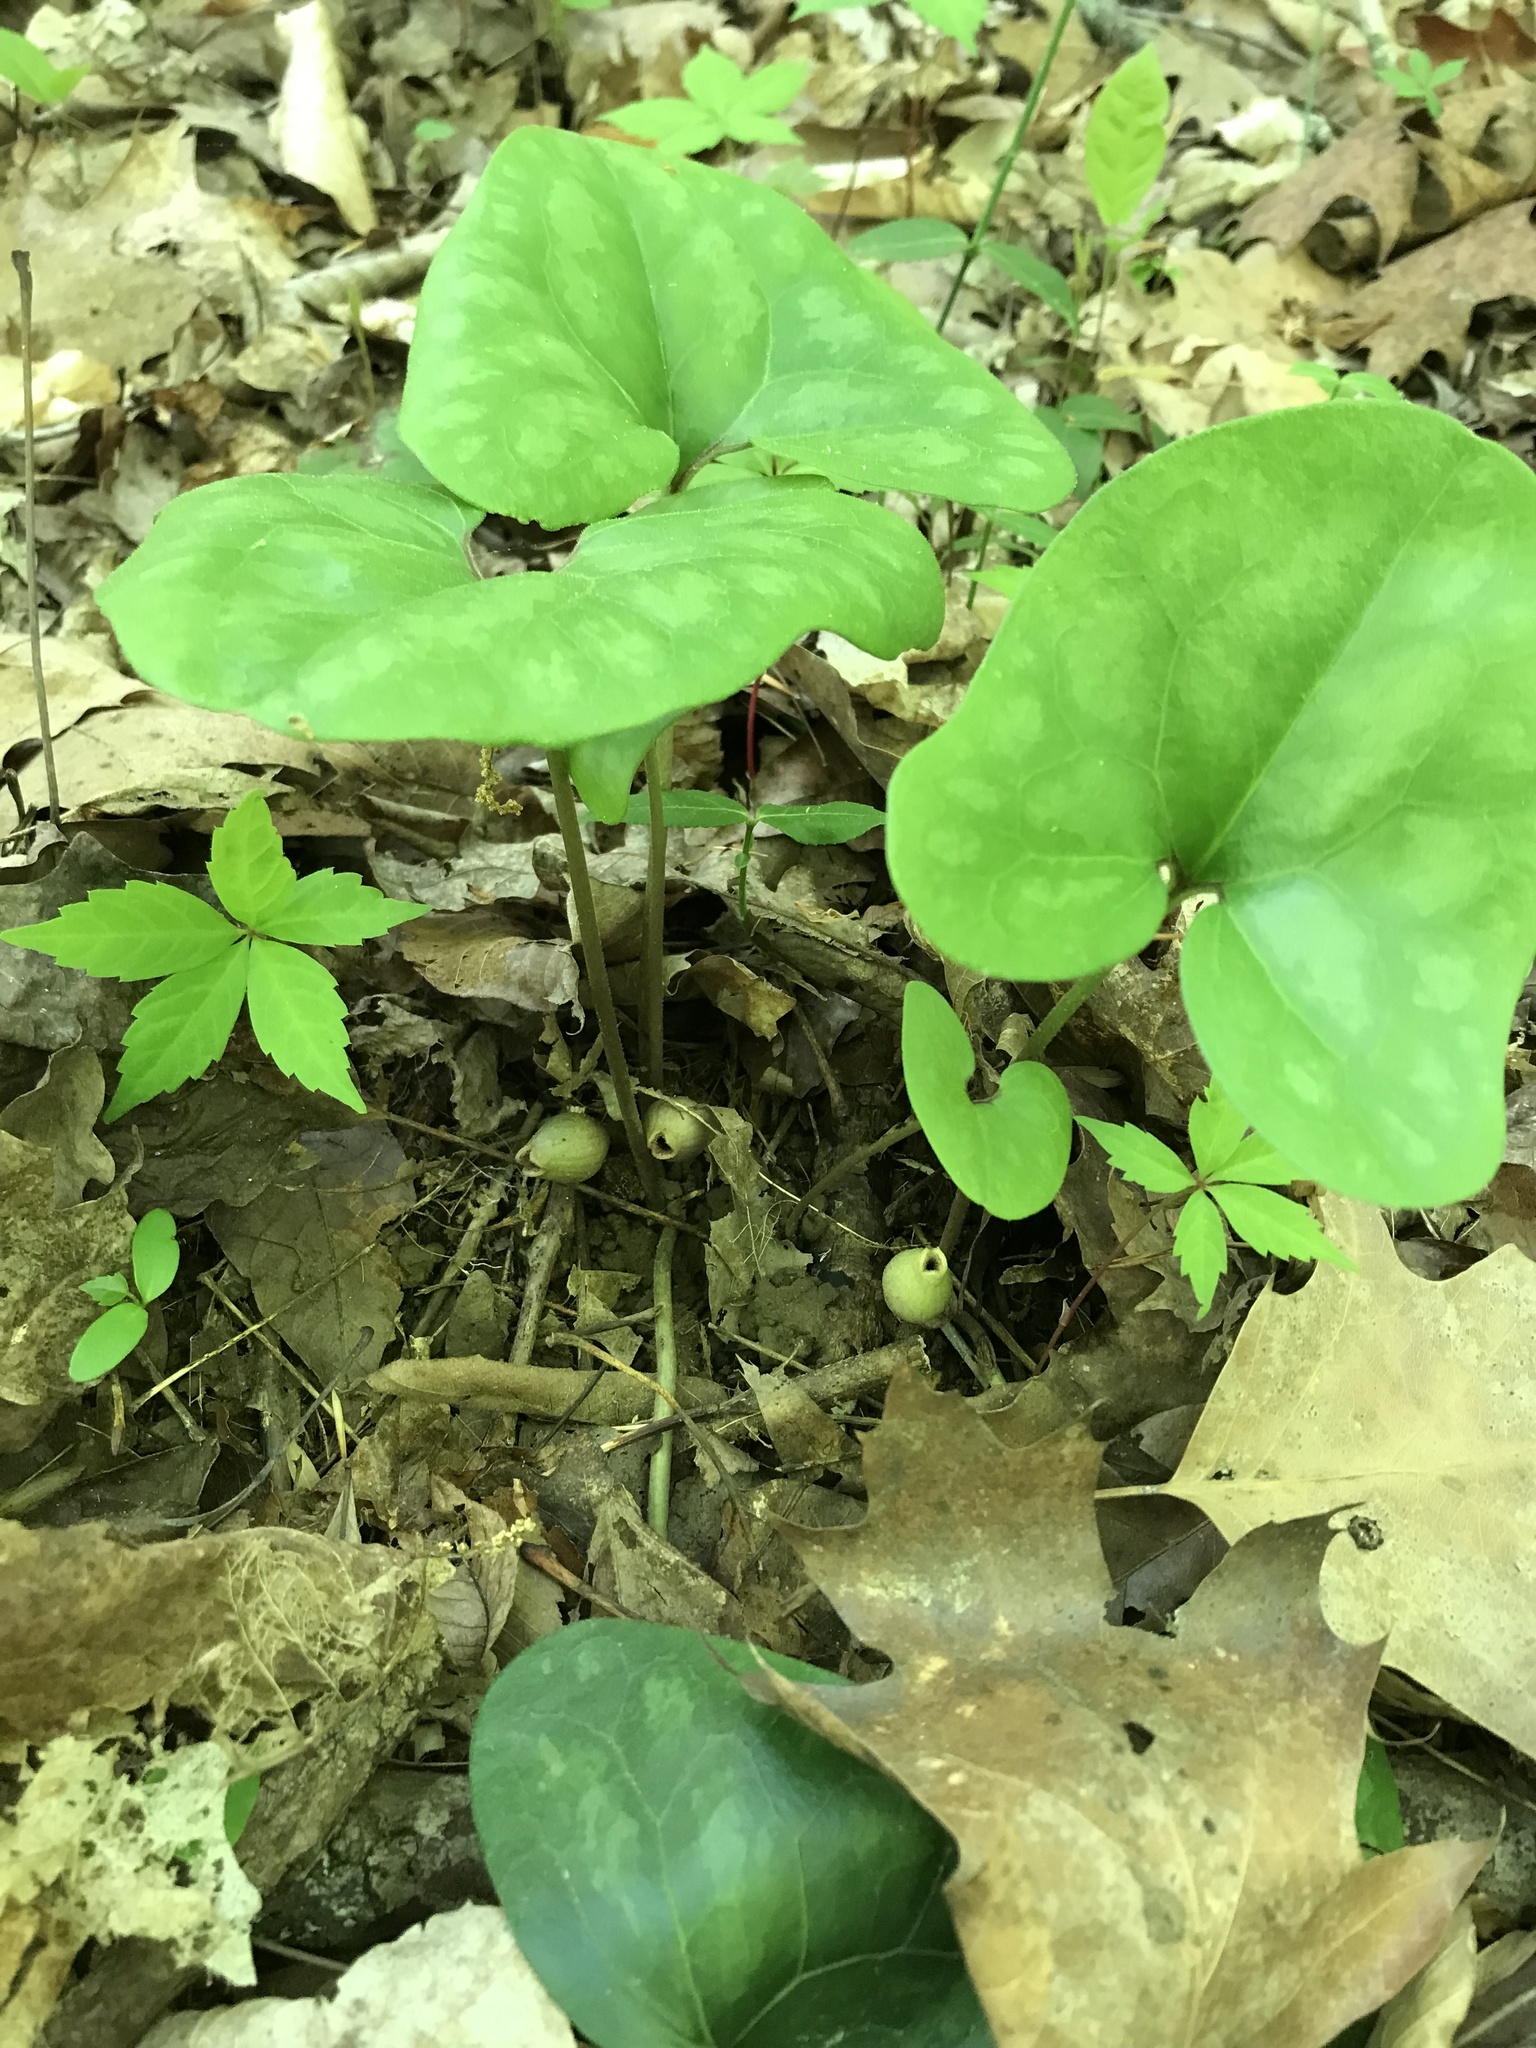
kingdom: Plantae
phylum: Tracheophyta
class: Magnoliopsida
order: Piperales
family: Aristolochiaceae
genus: Hexastylis
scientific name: Hexastylis arifolia
